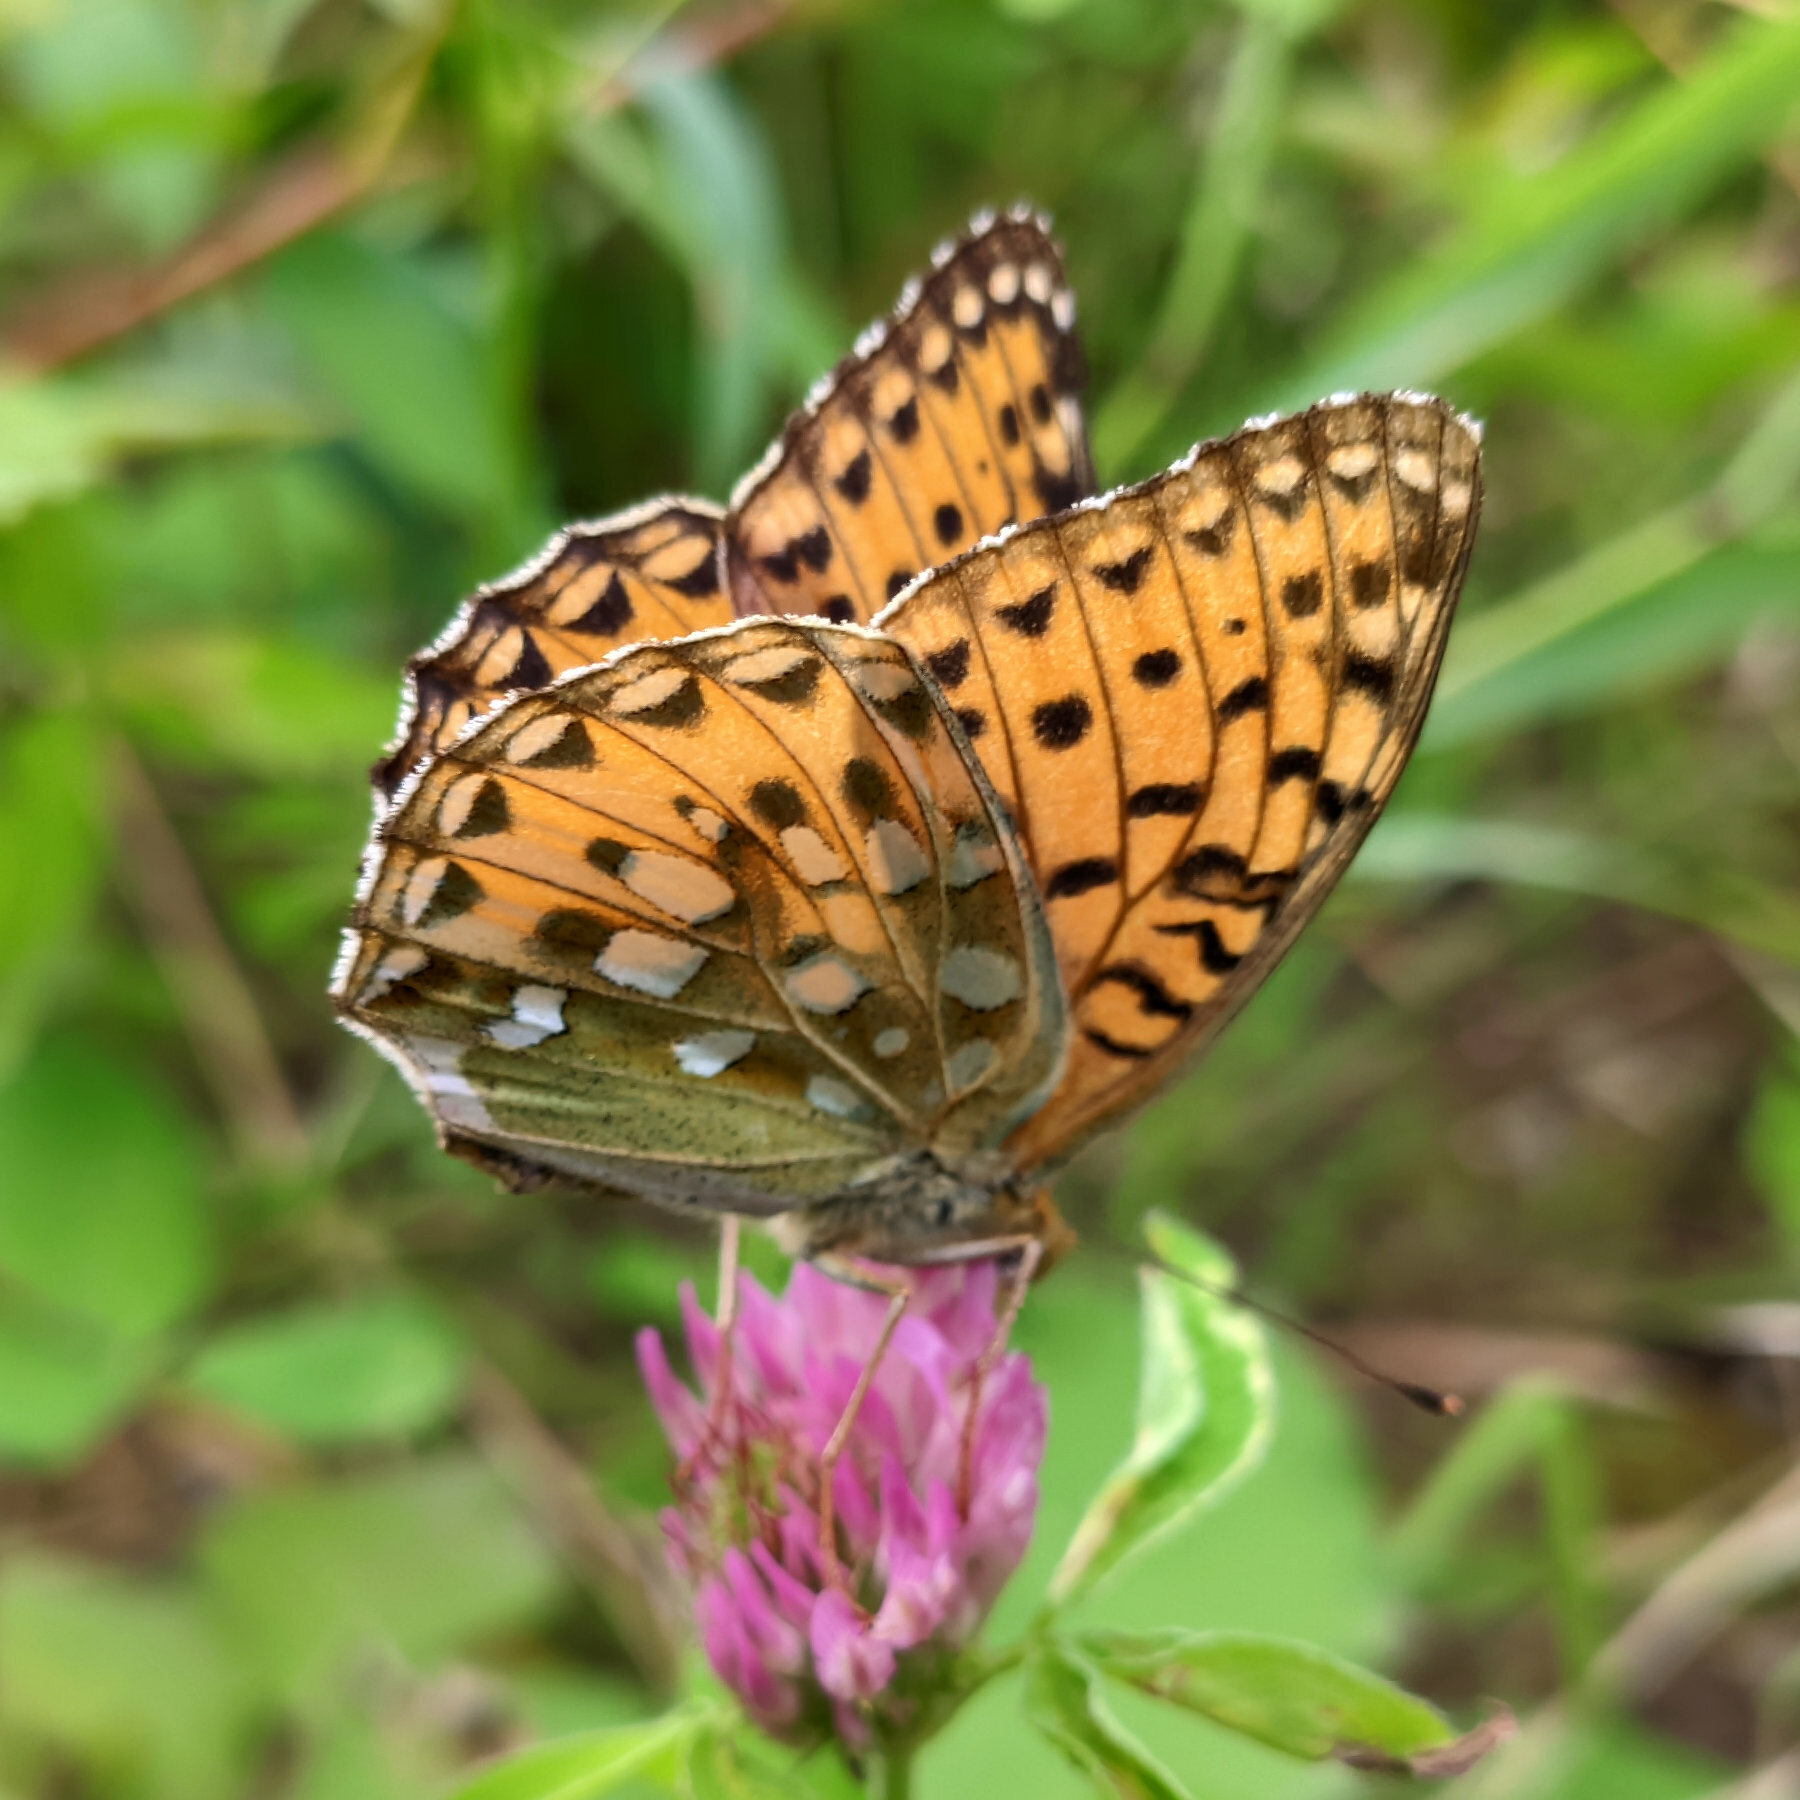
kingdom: Animalia
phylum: Arthropoda
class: Insecta
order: Lepidoptera
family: Nymphalidae
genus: Speyeria
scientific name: Speyeria aglaja
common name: Dark green fritillary
